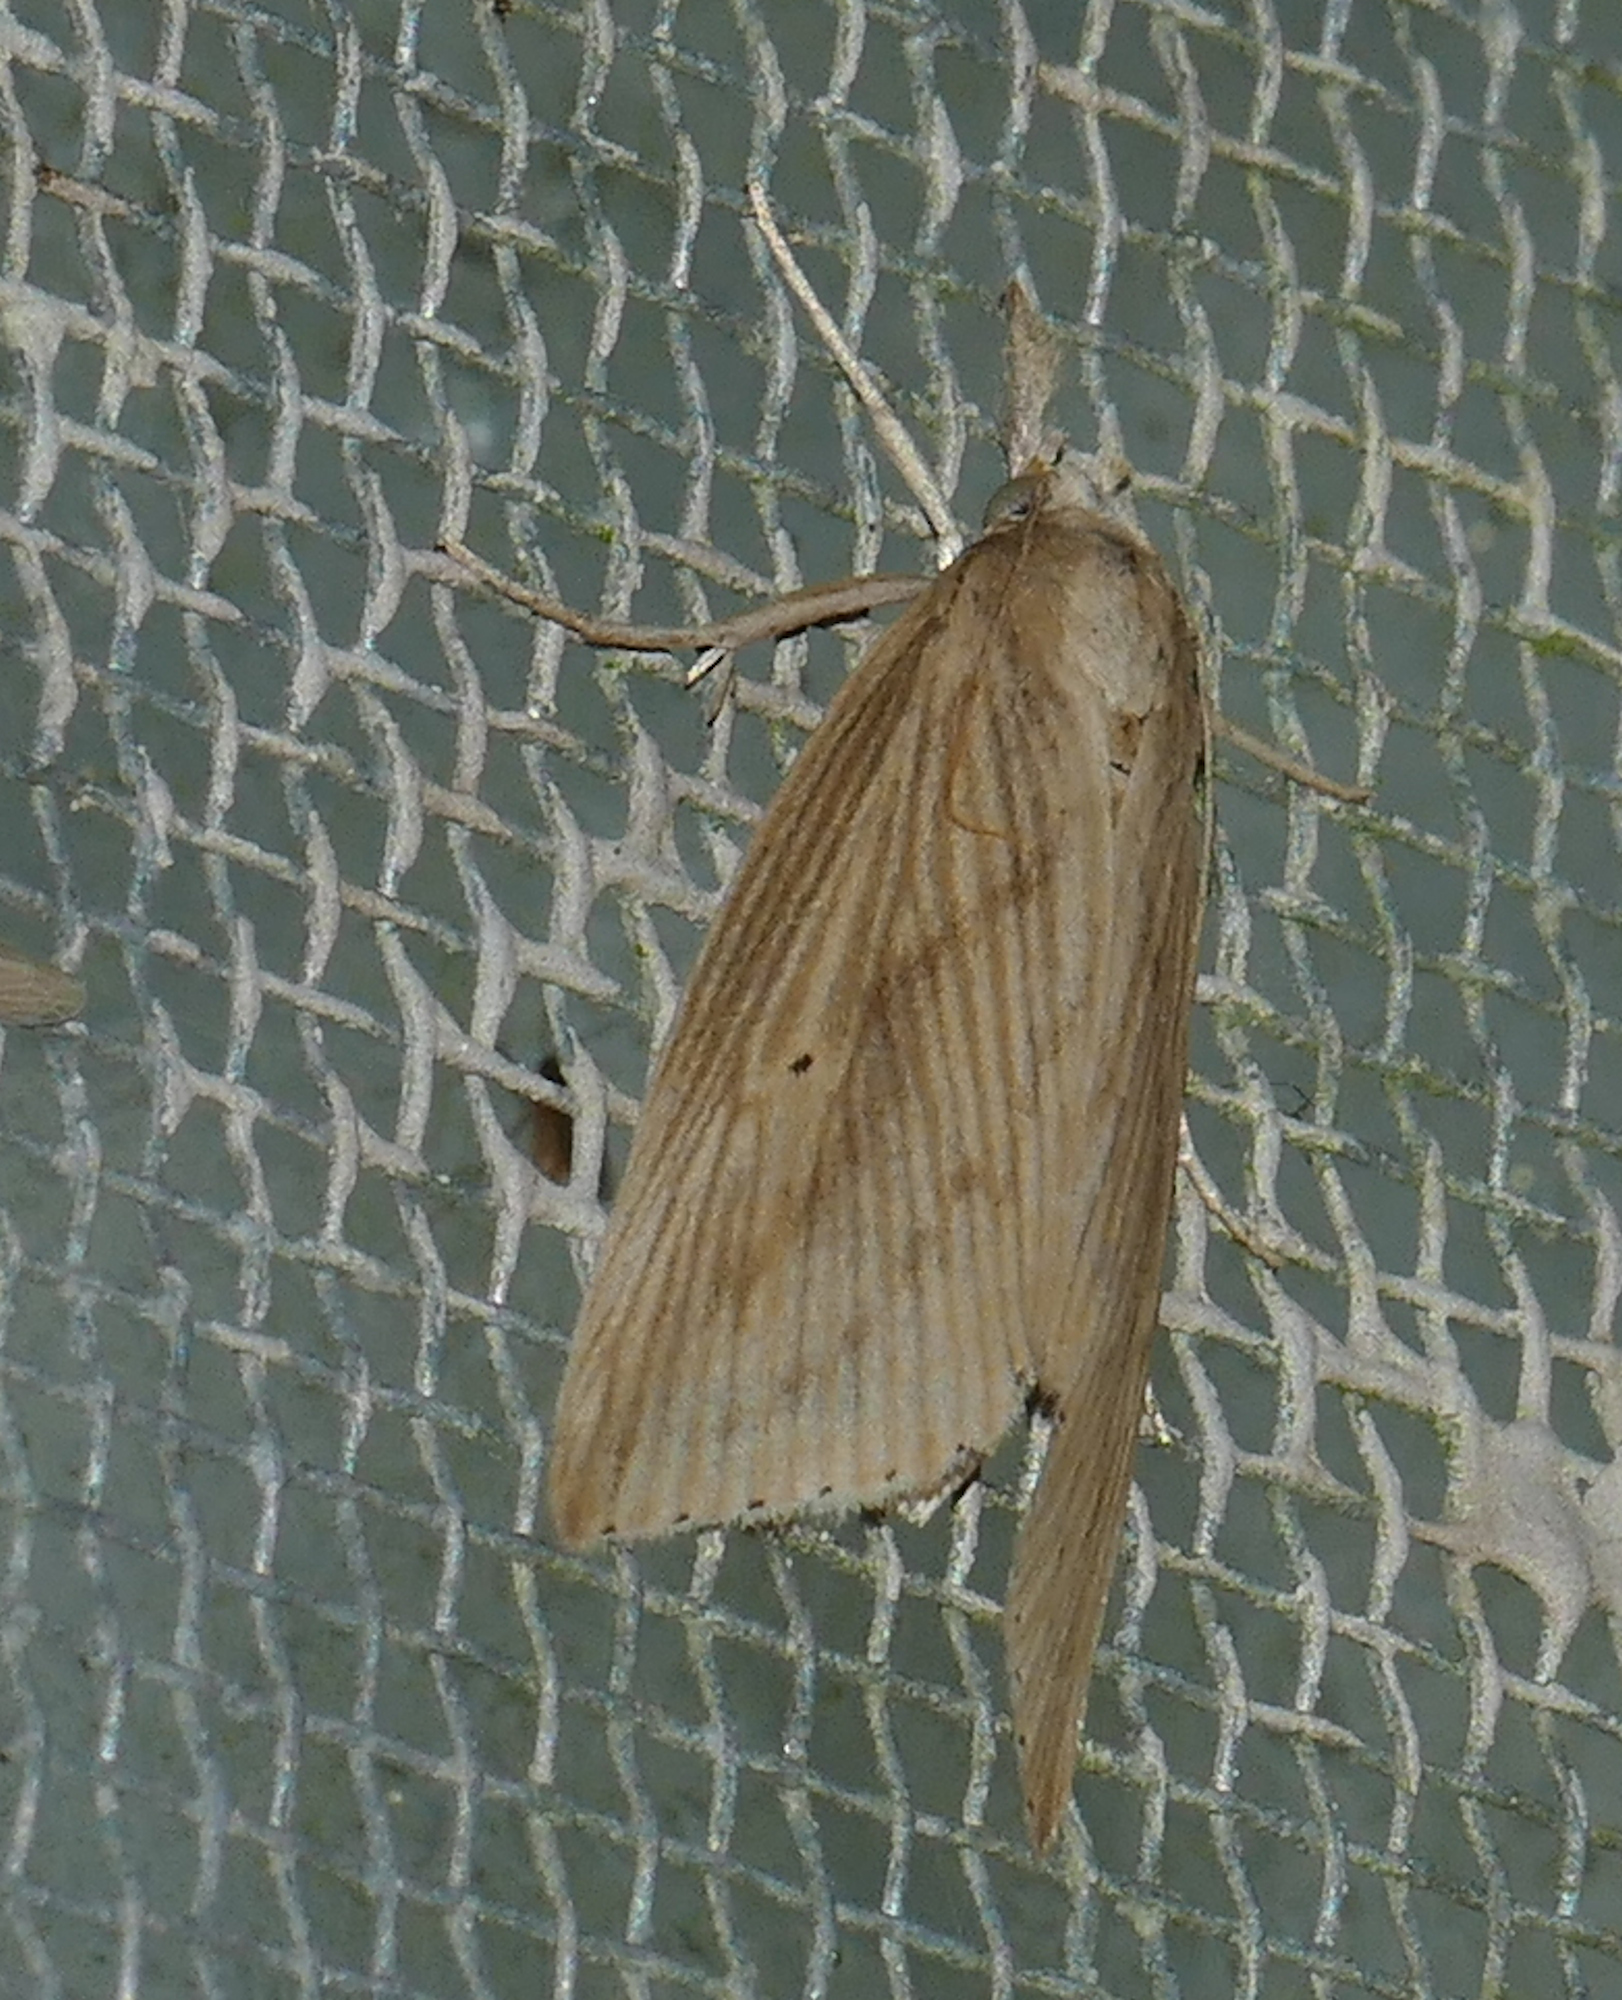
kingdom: Animalia
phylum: Arthropoda
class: Insecta
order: Lepidoptera
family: Crambidae
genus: Diatraea
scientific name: Diatraea lisetta
